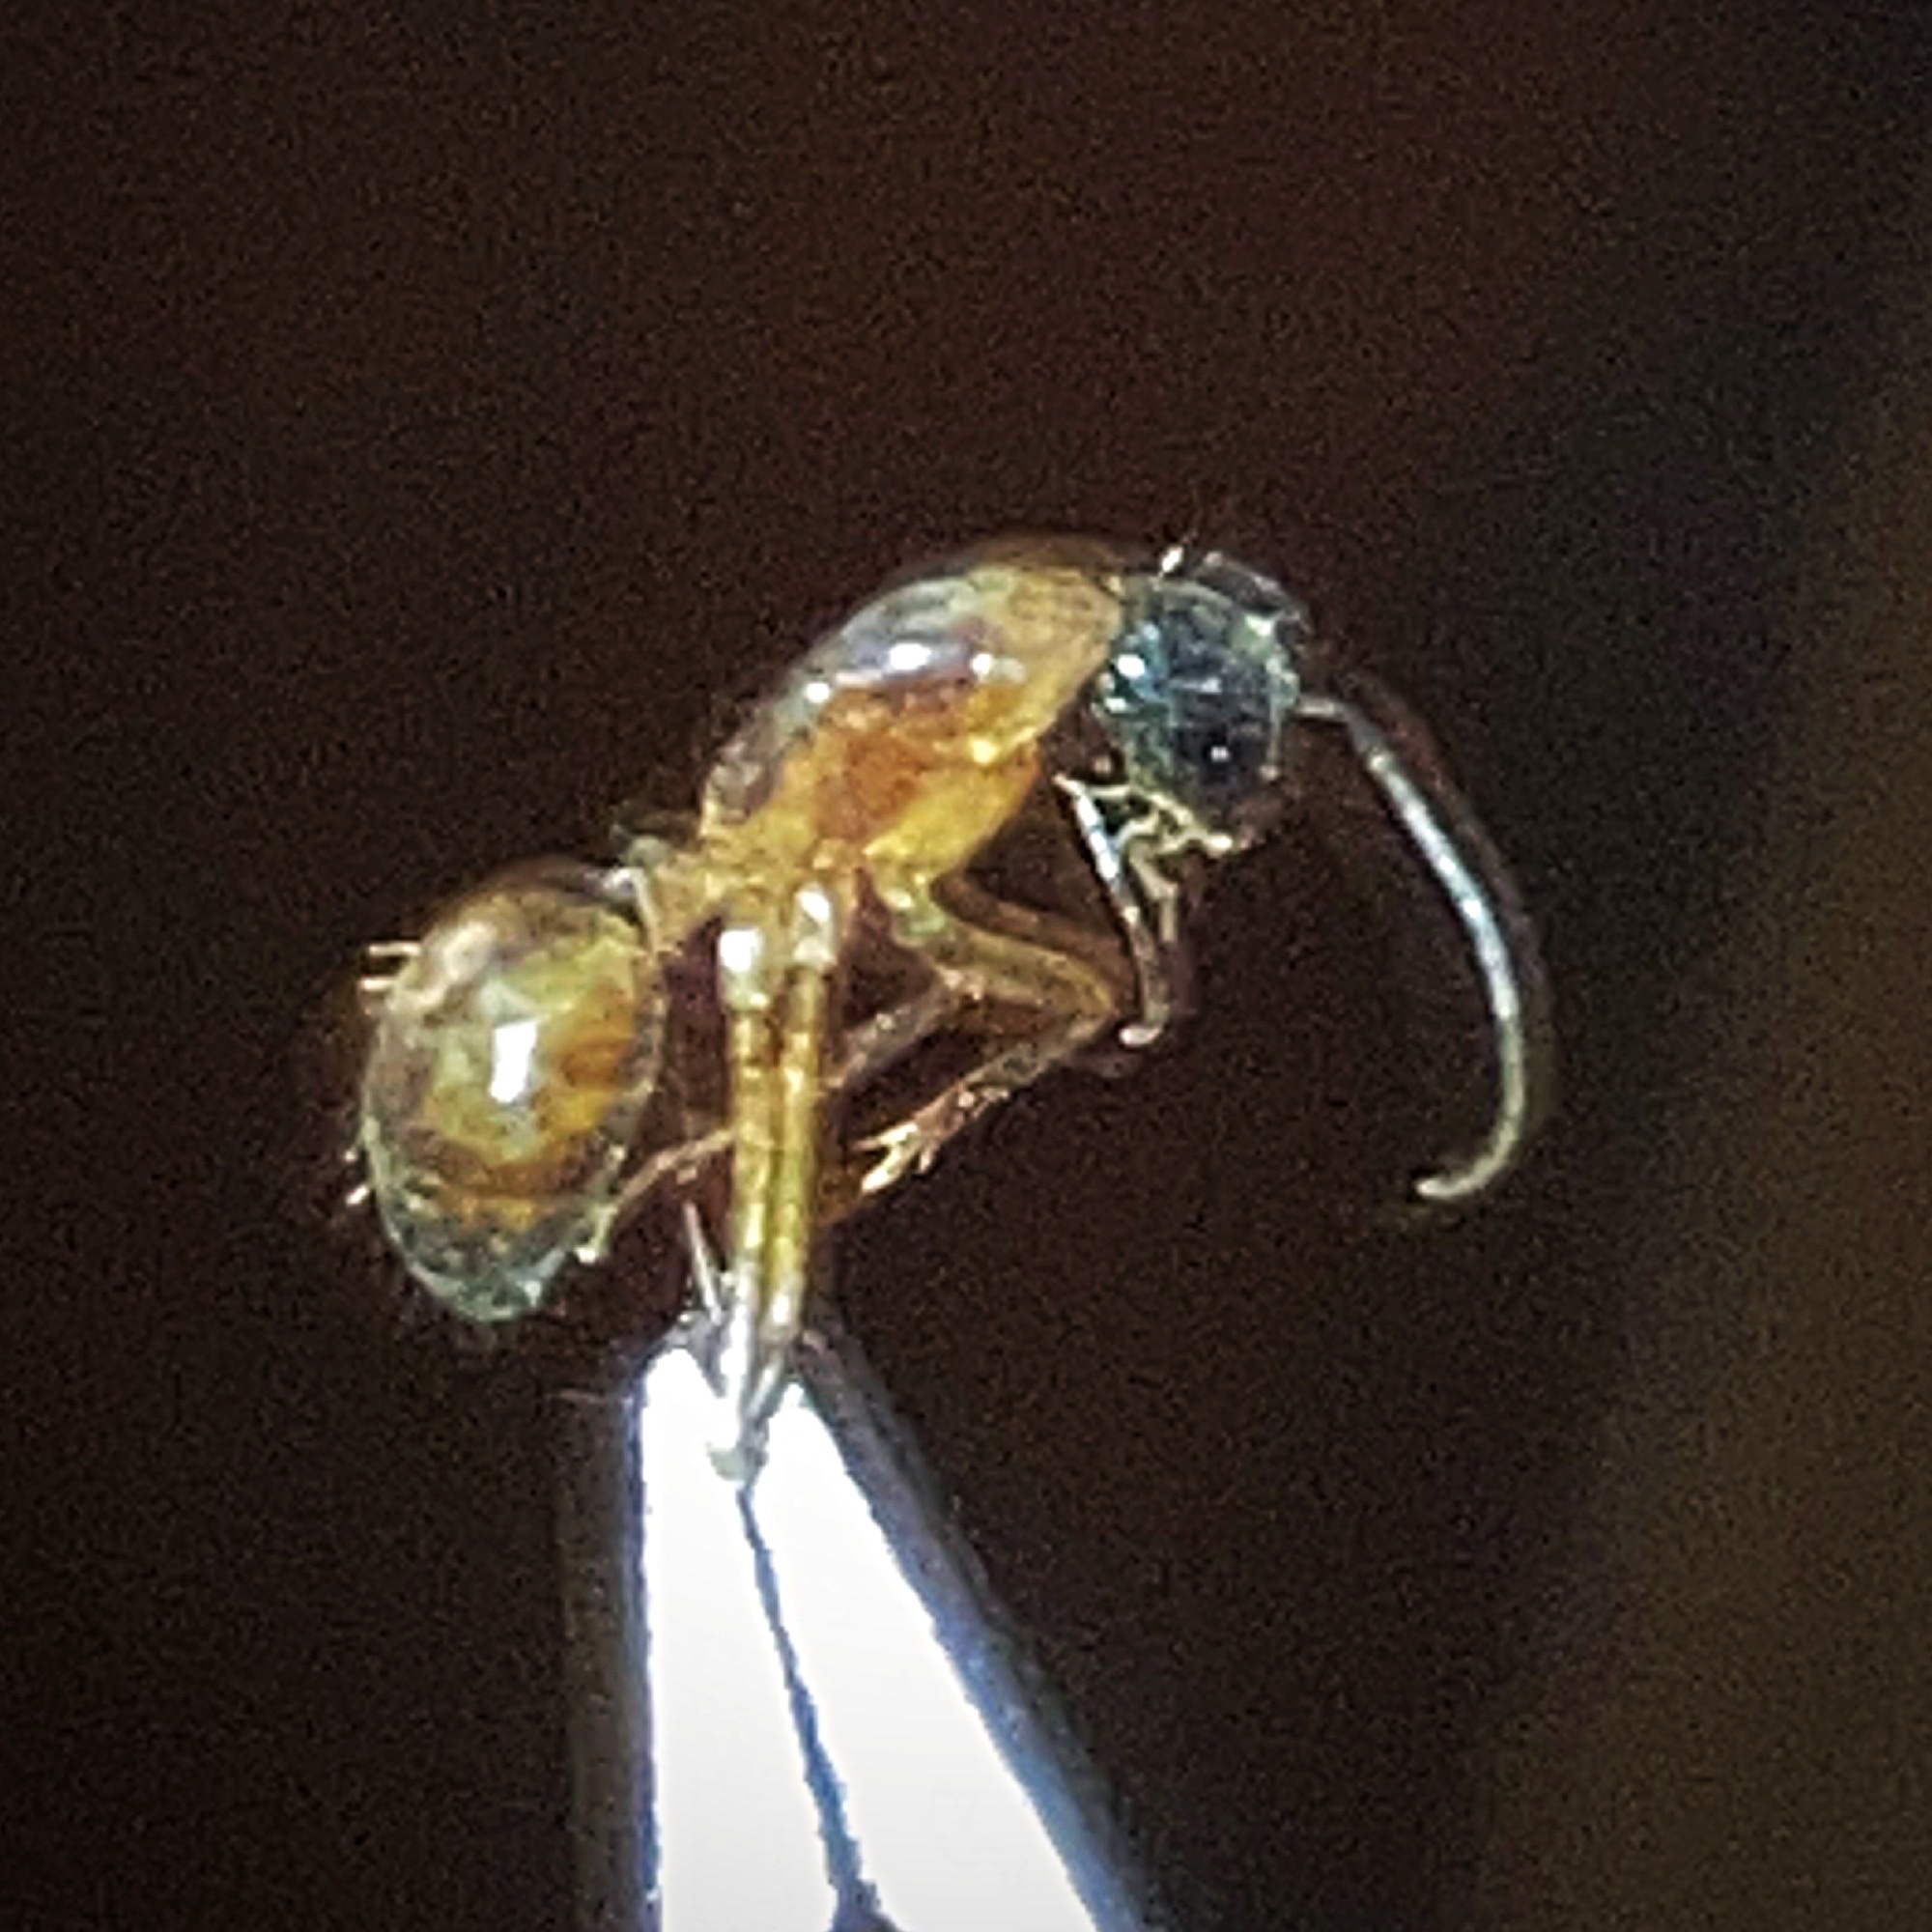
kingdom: Animalia
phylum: Arthropoda
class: Insecta
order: Hymenoptera
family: Formicidae
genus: Camponotus
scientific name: Camponotus americanus
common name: American carpenter ant
